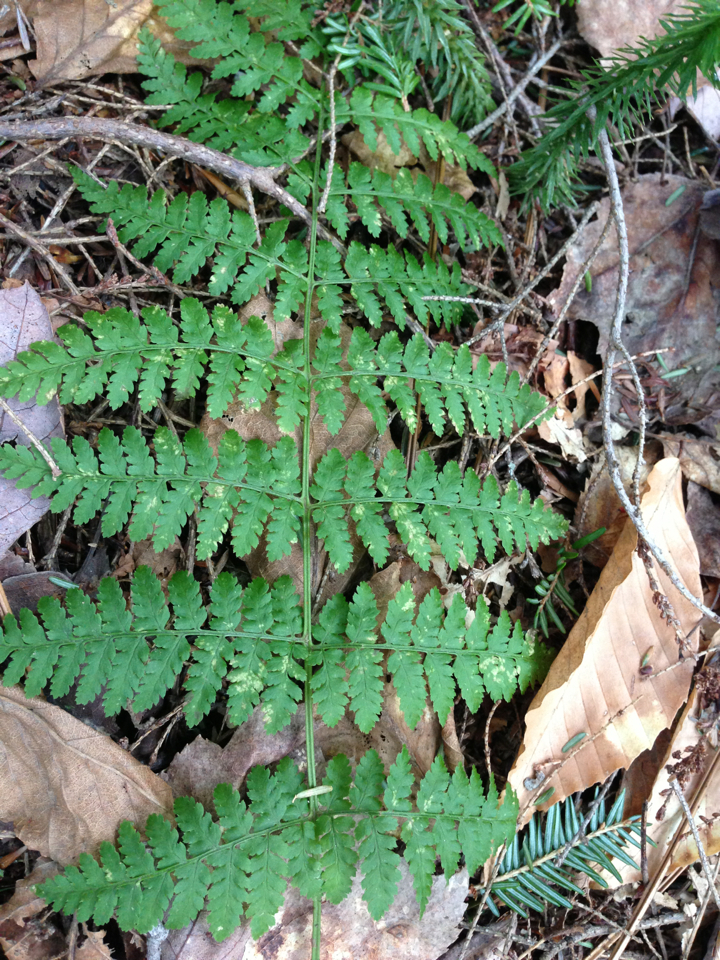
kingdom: Plantae
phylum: Tracheophyta
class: Polypodiopsida
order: Polypodiales
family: Dryopteridaceae
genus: Dryopteris
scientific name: Dryopteris intermedia
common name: Evergreen wood fern
